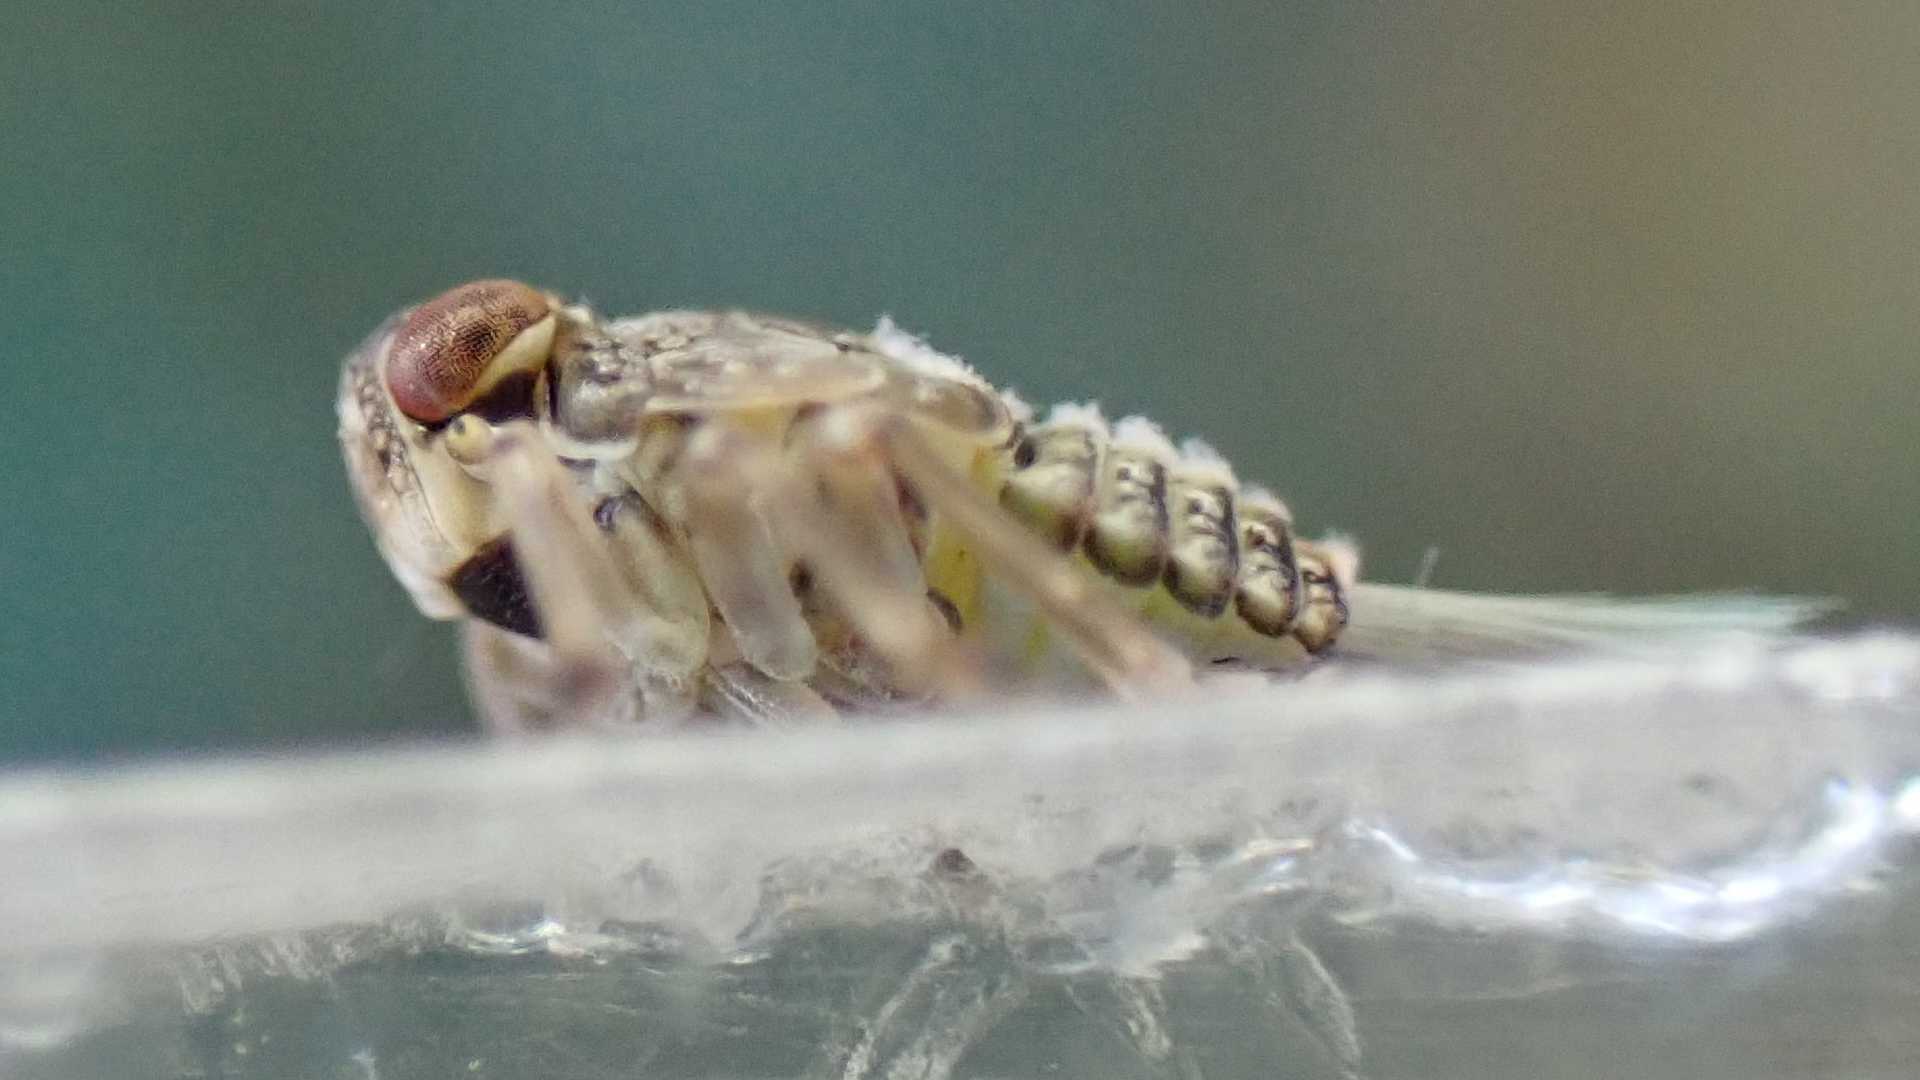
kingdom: Animalia
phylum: Arthropoda
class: Insecta
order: Hemiptera
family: Issidae
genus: Issus
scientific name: Issus
